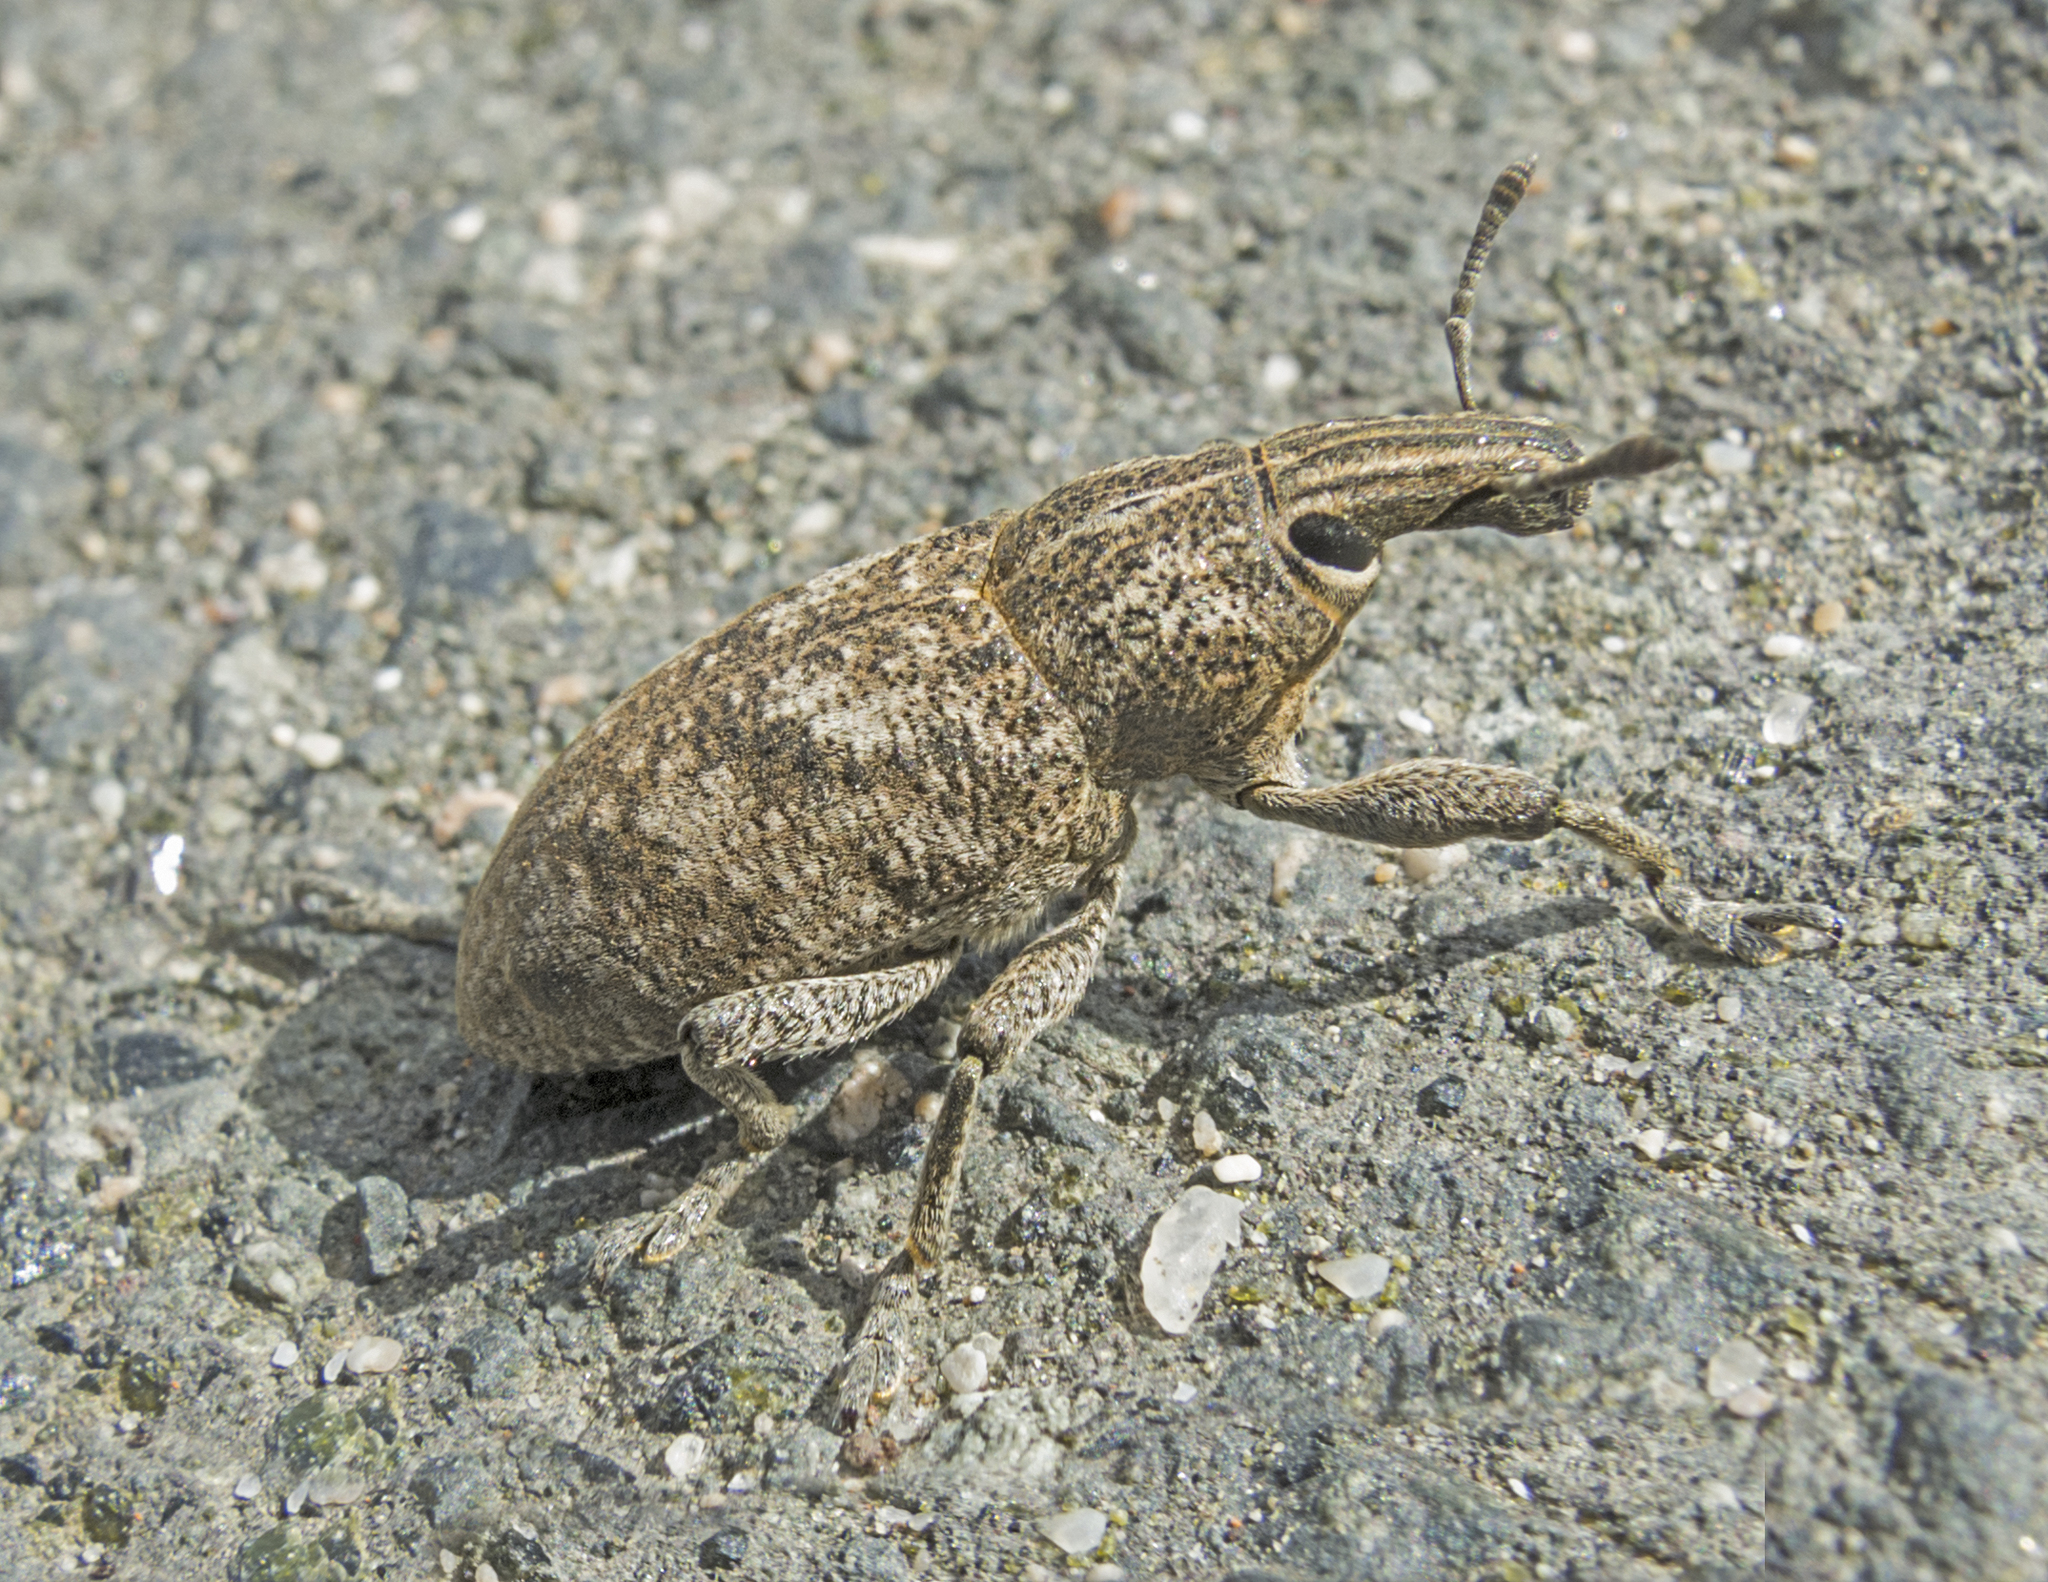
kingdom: Animalia
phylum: Arthropoda
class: Insecta
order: Coleoptera
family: Curculionidae
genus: Cleonis
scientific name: Cleonis pigra
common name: Large thistle weevil
